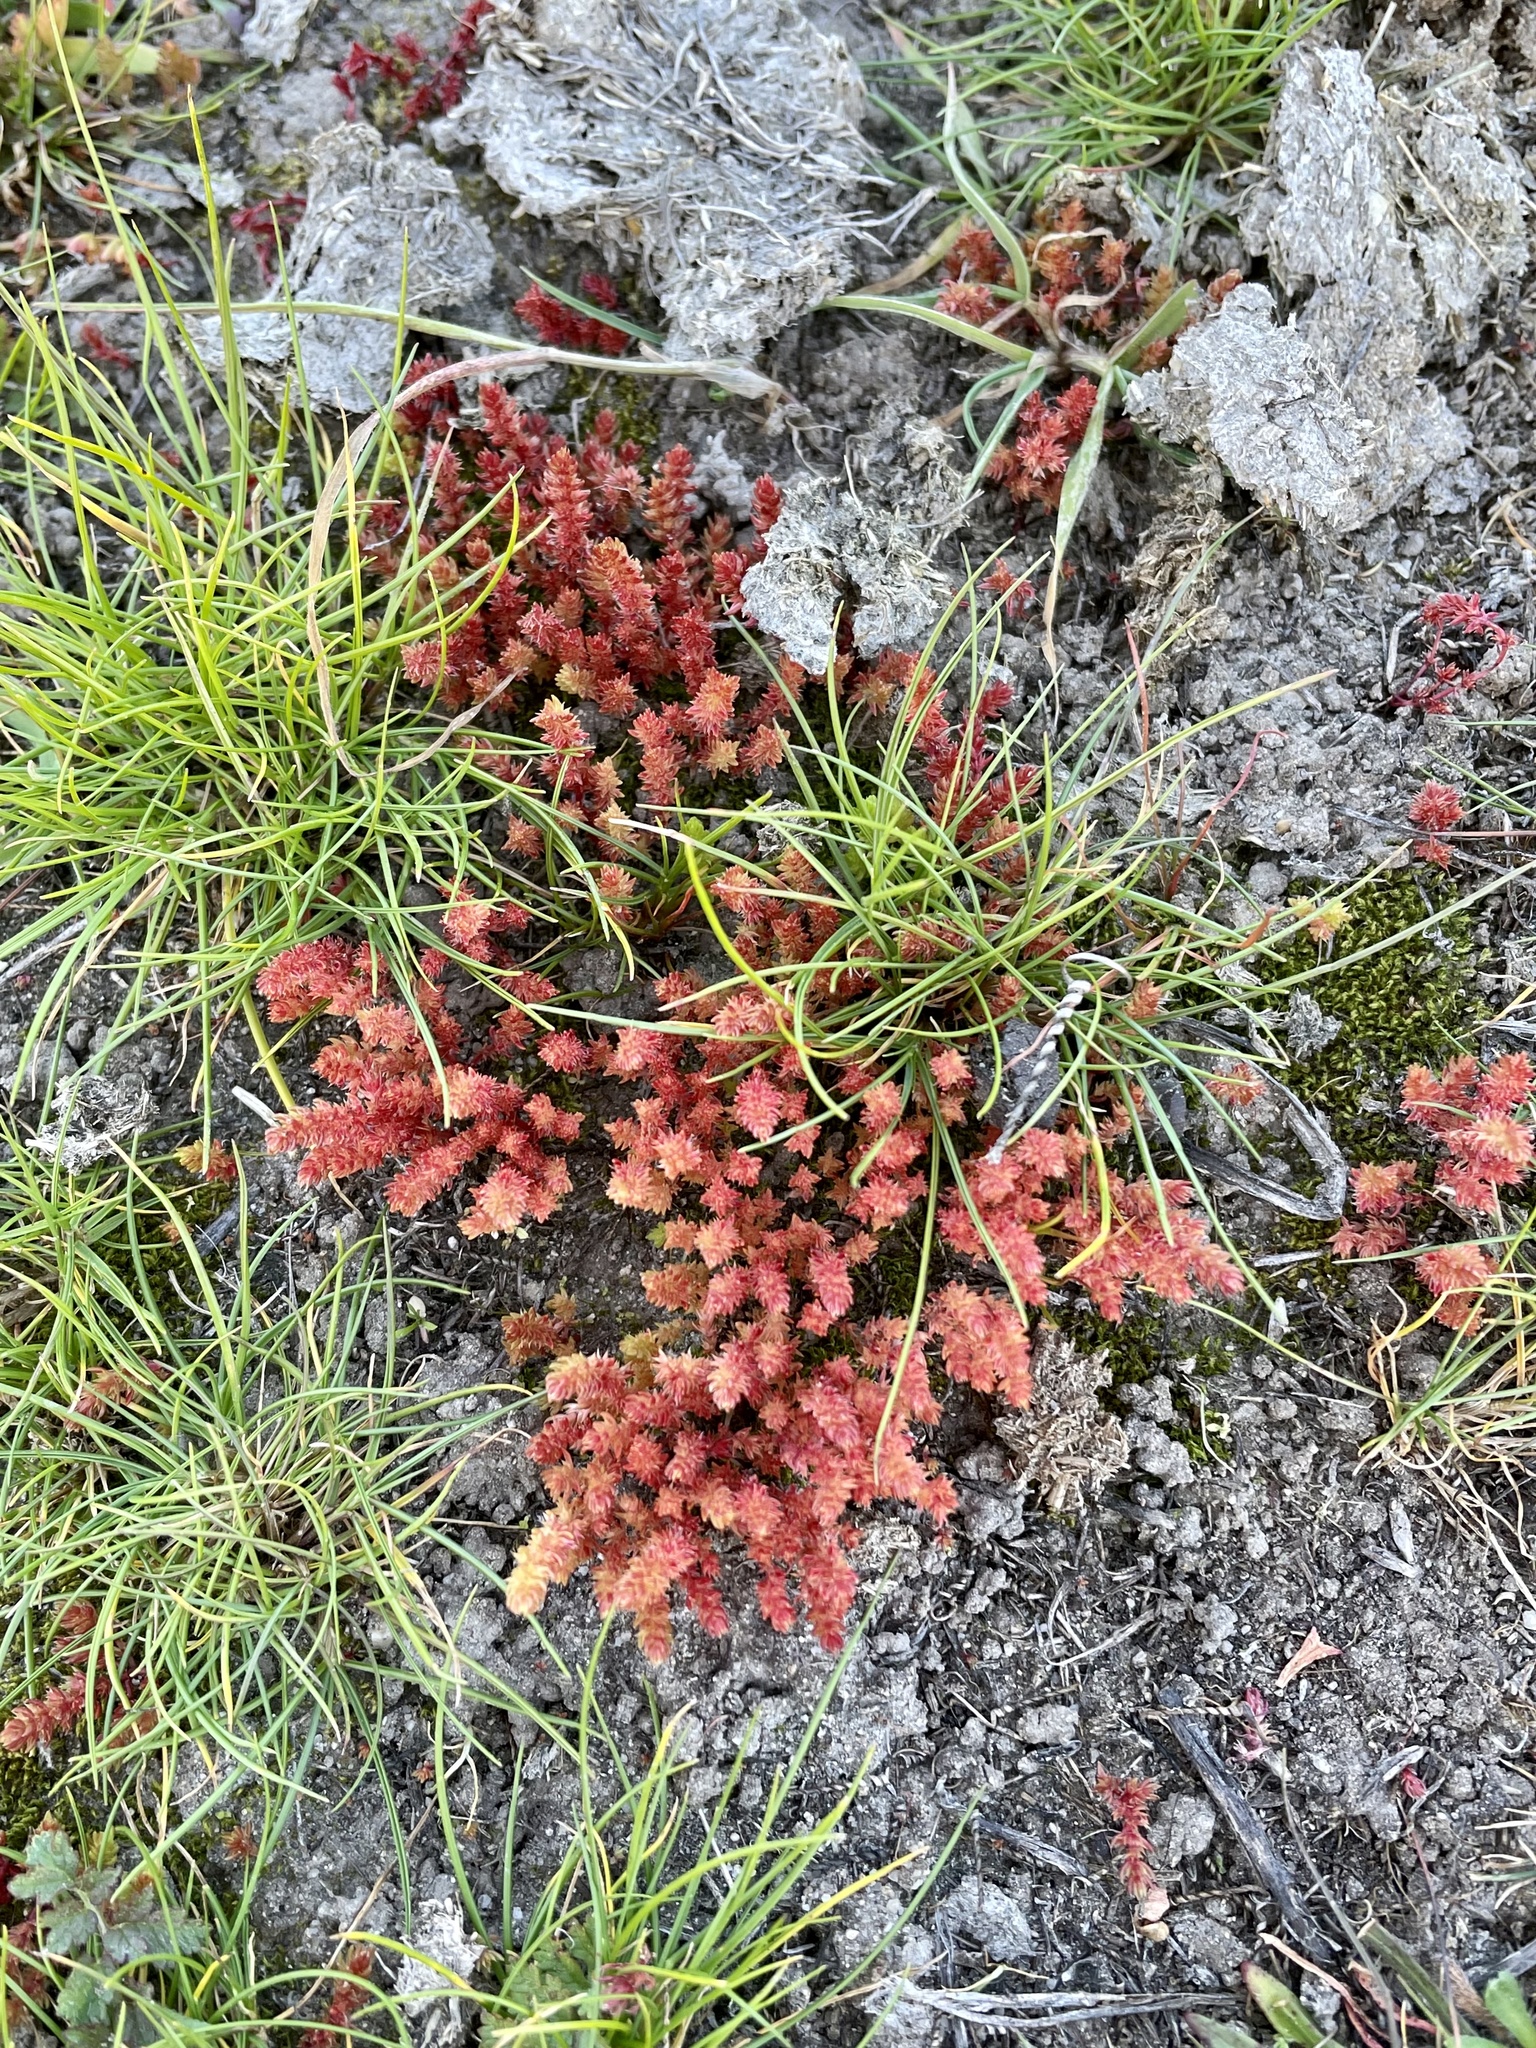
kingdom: Plantae
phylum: Tracheophyta
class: Magnoliopsida
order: Saxifragales
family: Crassulaceae
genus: Crassula
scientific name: Crassula connata
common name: Erect pygmyweed
